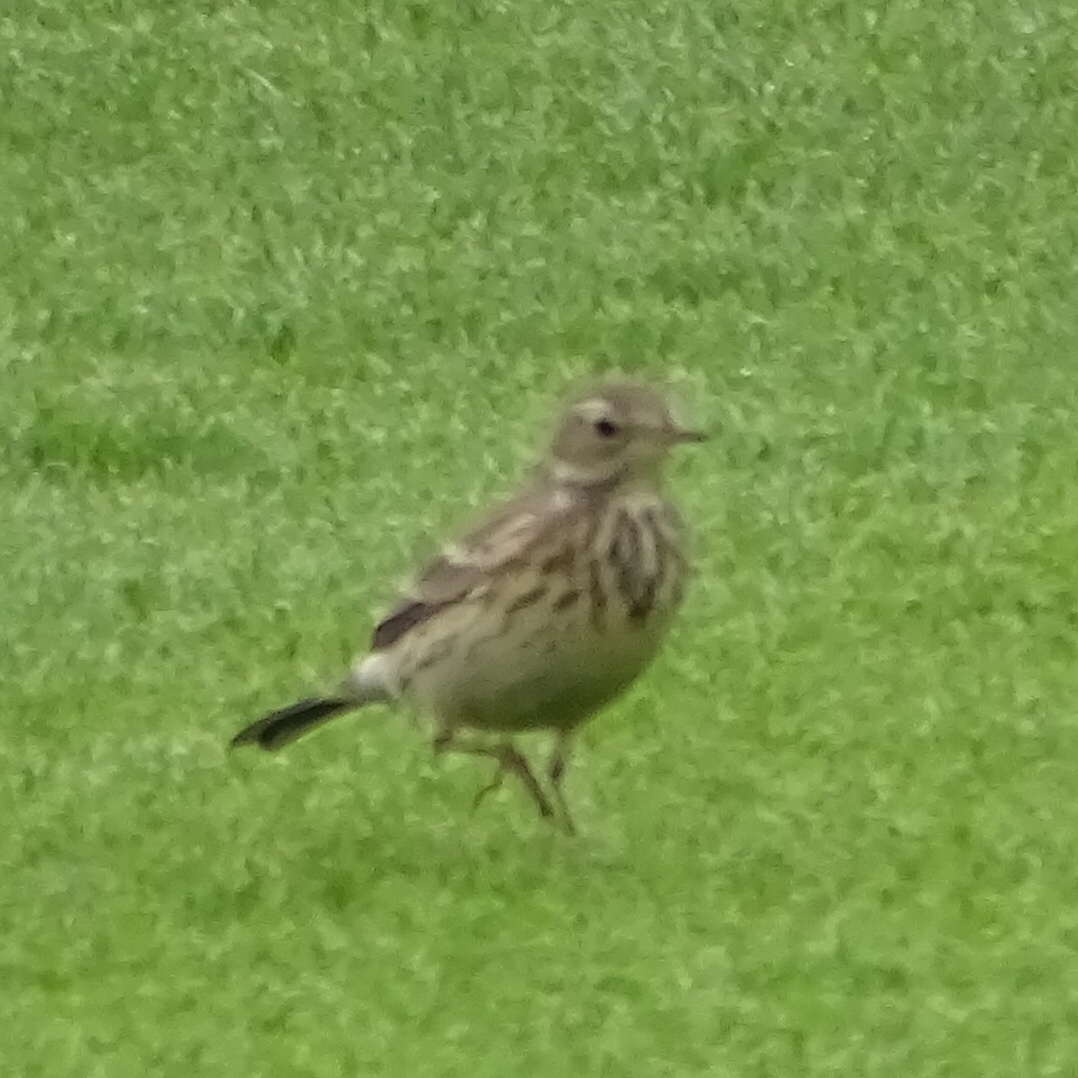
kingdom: Animalia
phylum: Chordata
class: Aves
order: Passeriformes
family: Motacillidae
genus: Anthus
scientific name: Anthus rubescens
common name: Buff-bellied pipit
